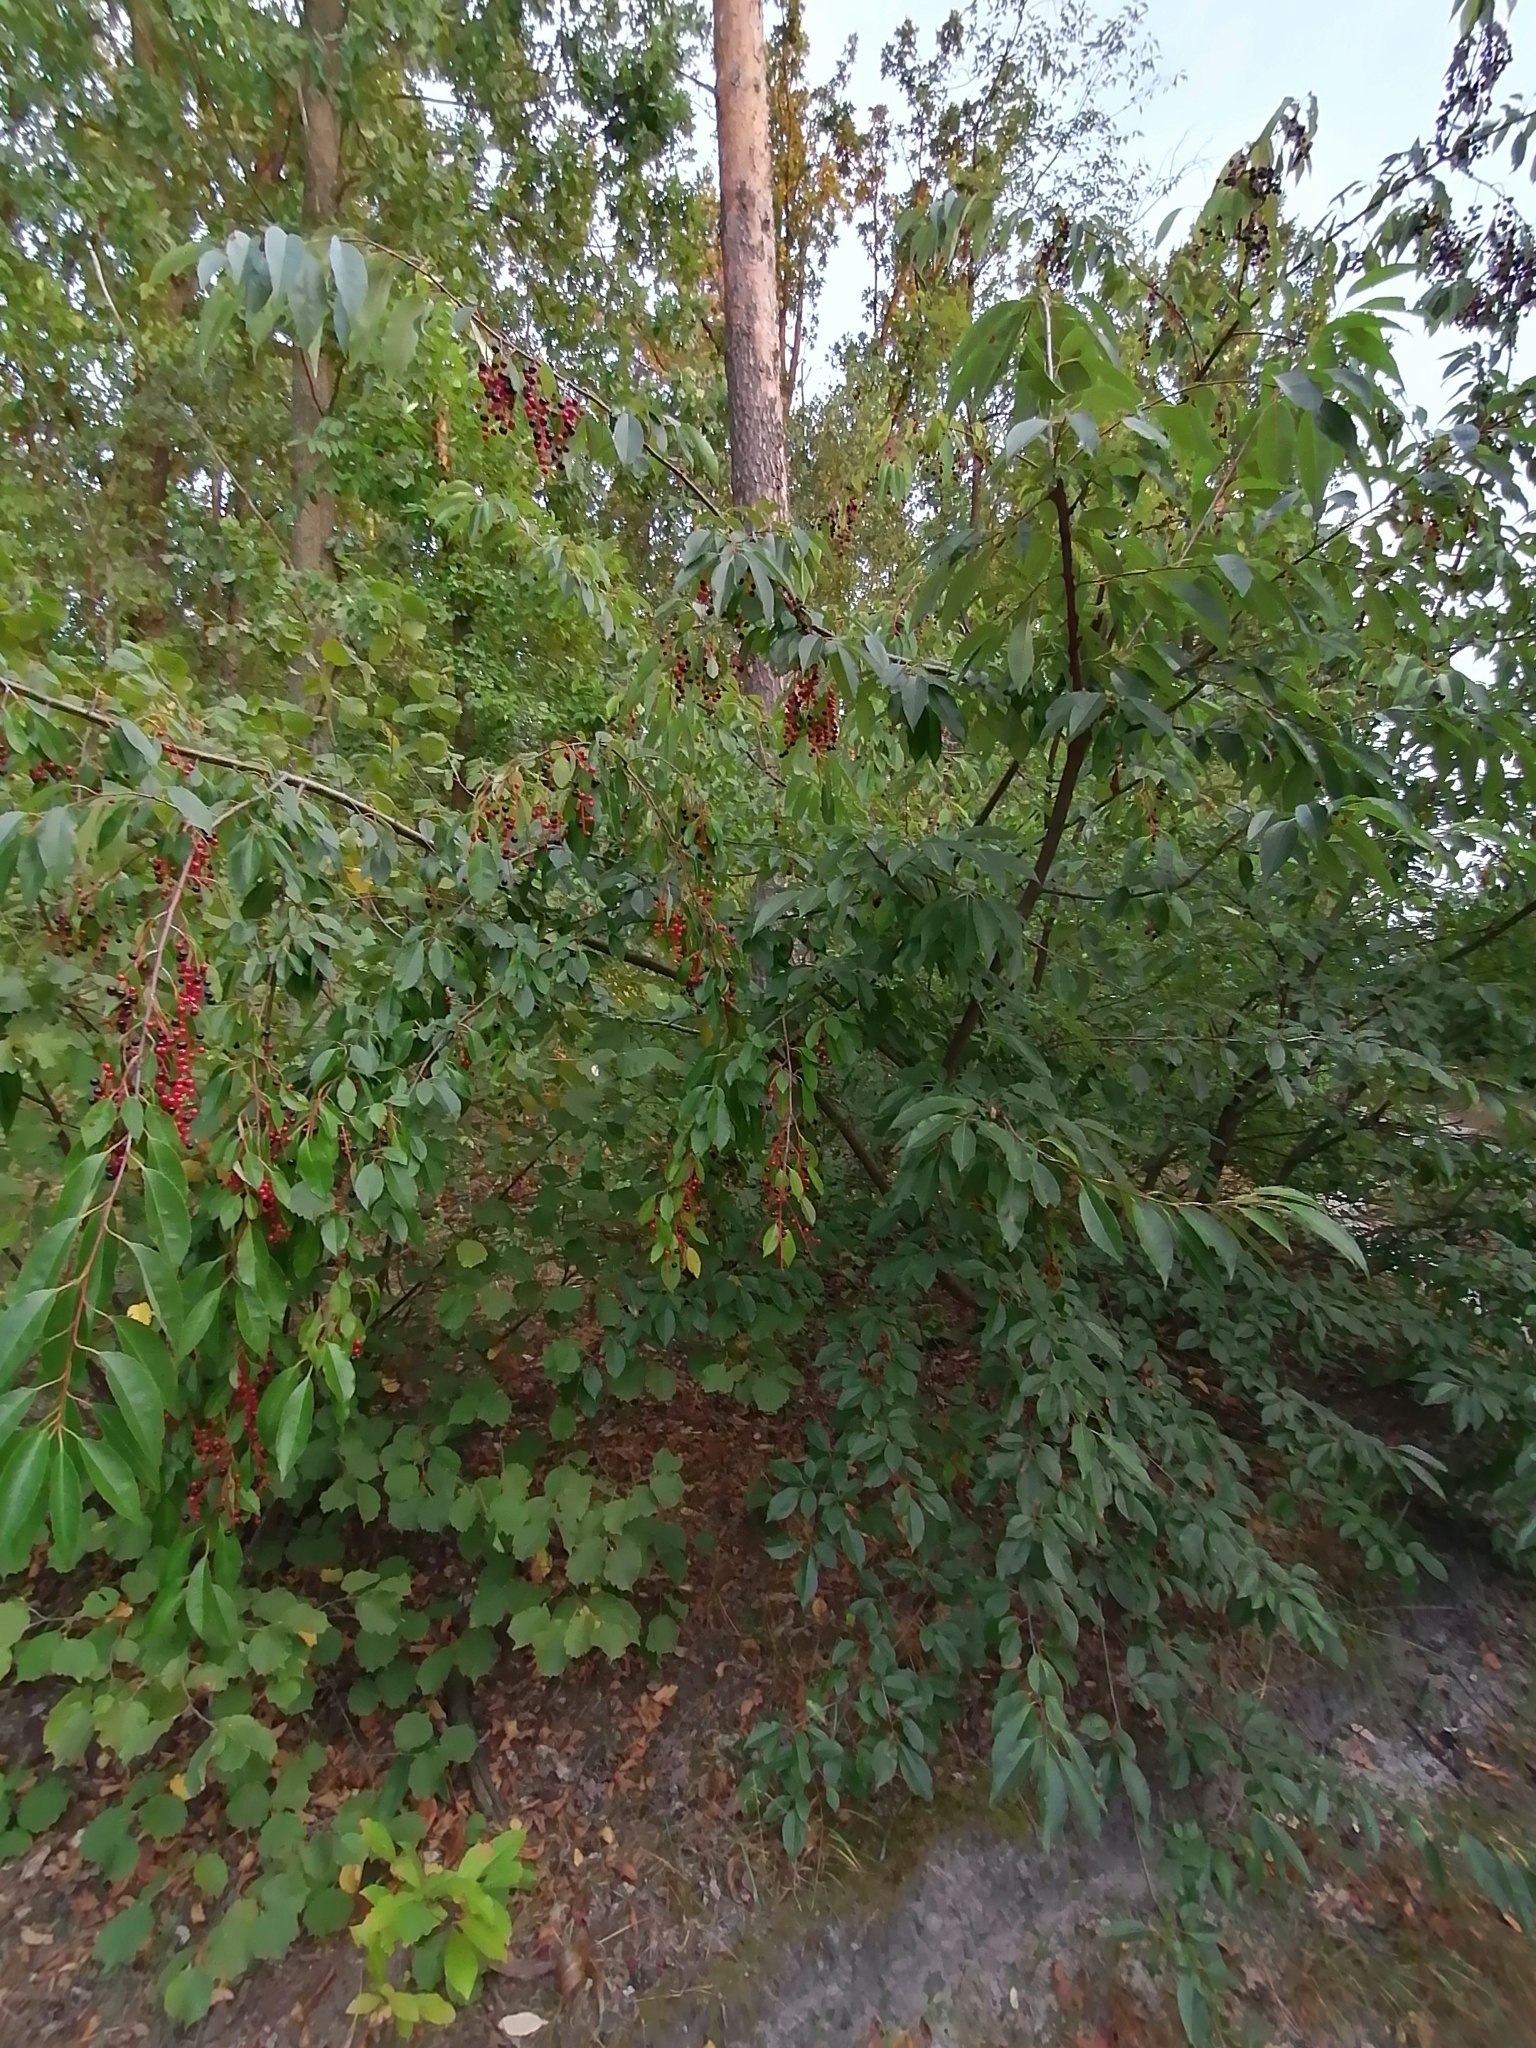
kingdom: Plantae
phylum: Tracheophyta
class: Magnoliopsida
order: Rosales
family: Rosaceae
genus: Prunus
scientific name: Prunus serotina
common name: Black cherry
